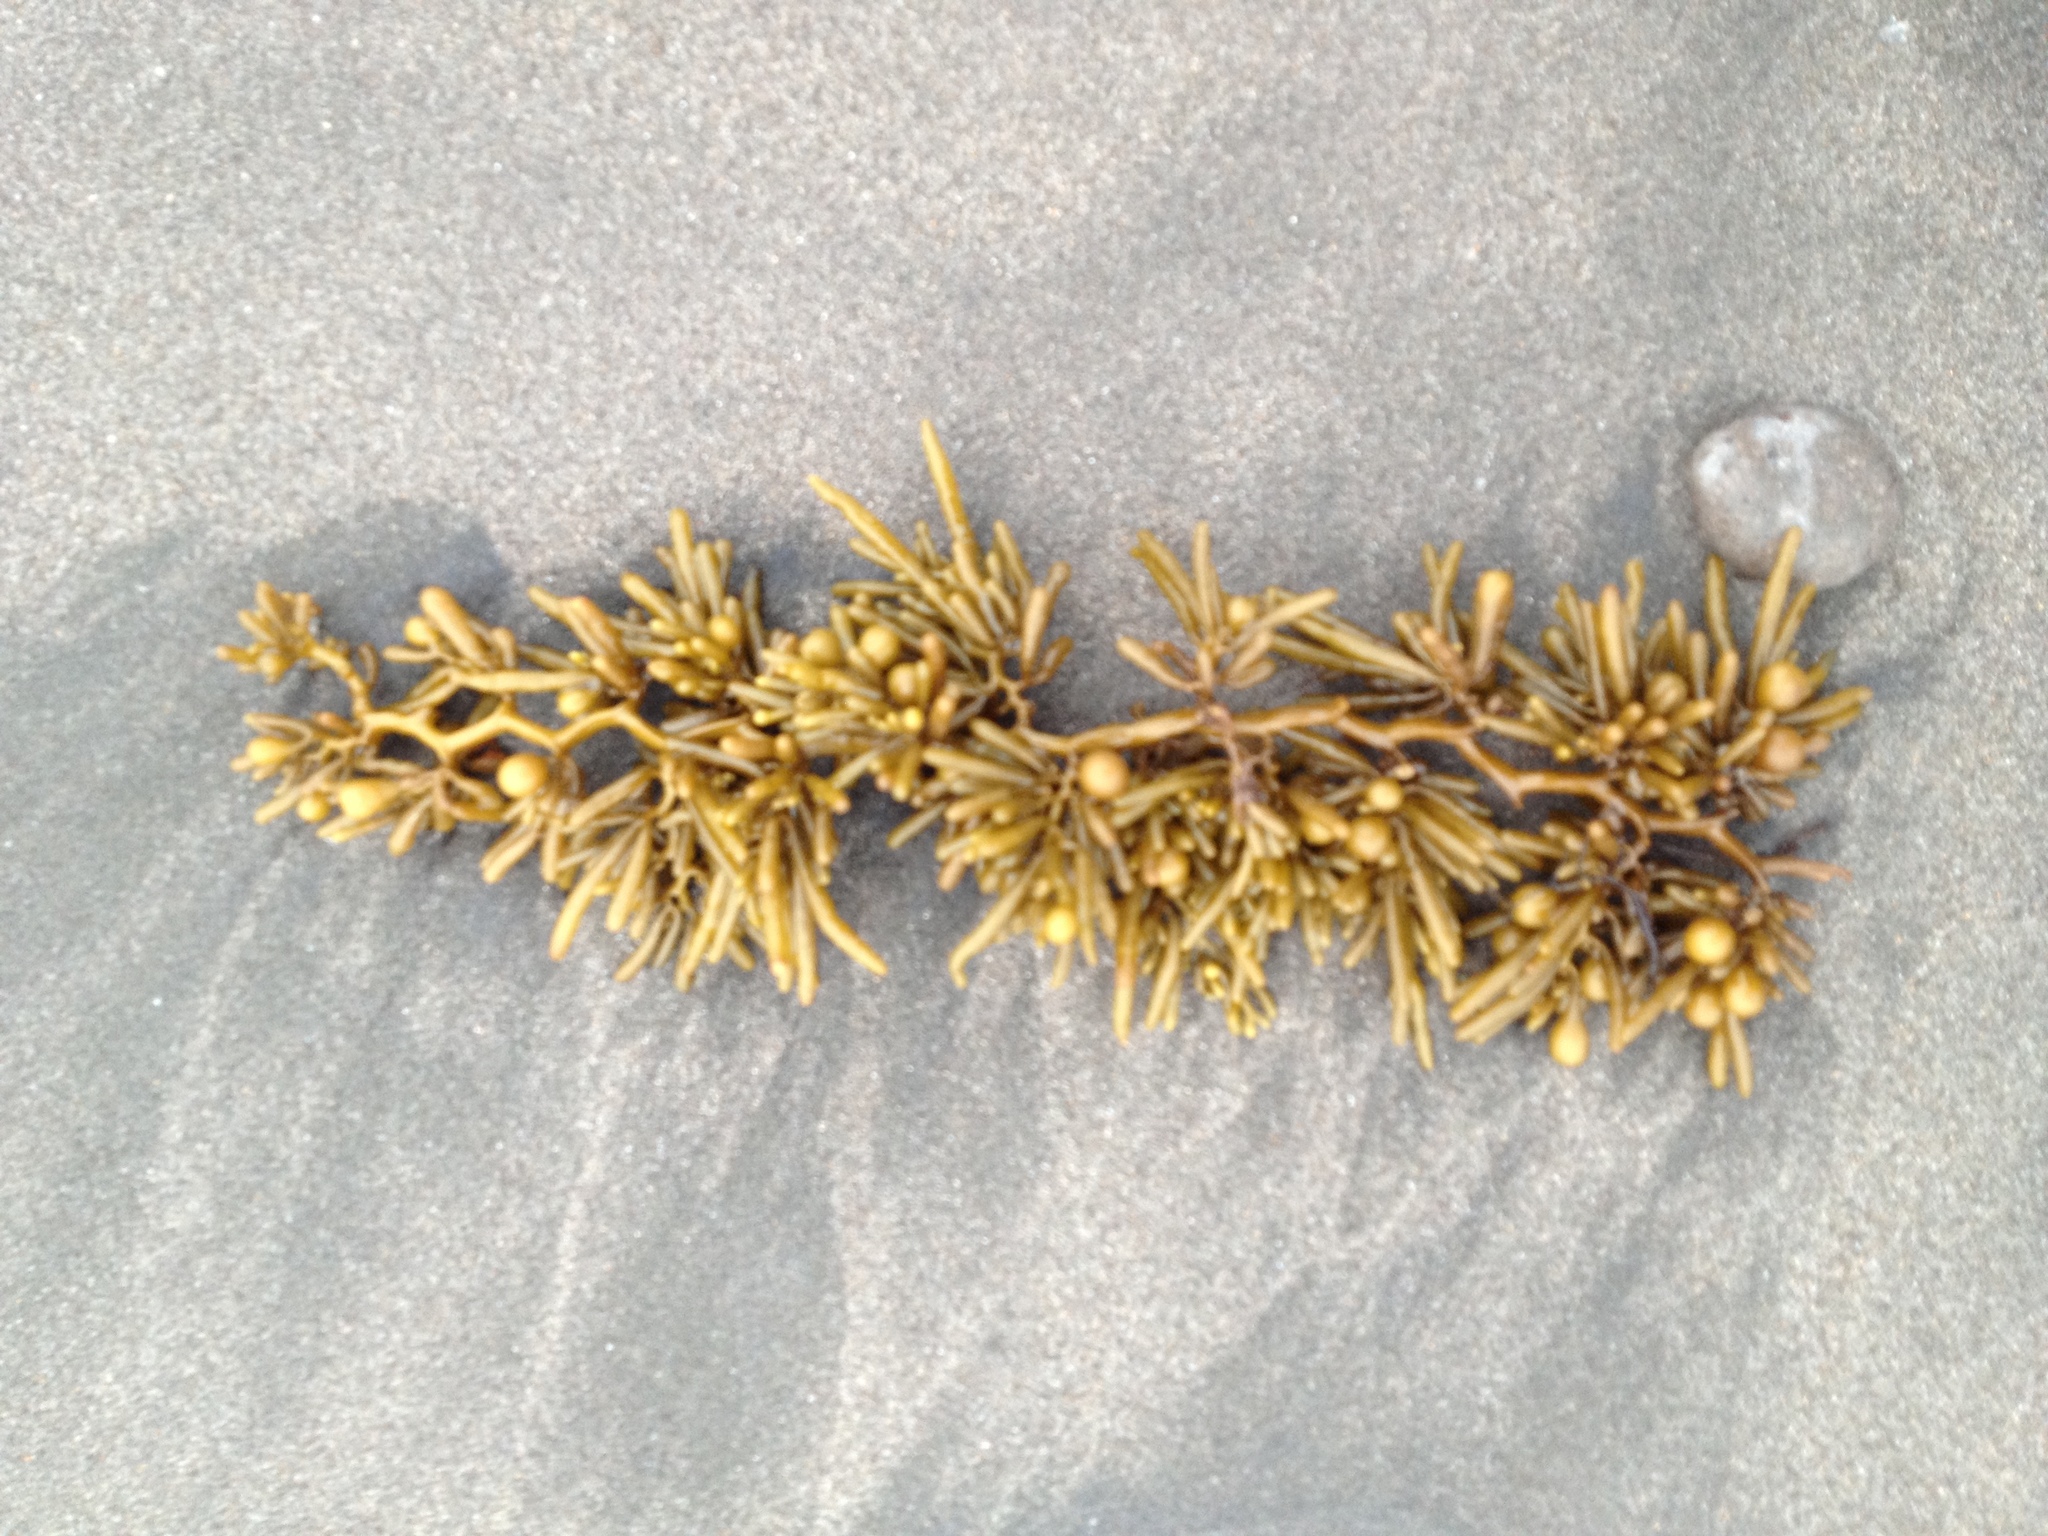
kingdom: Chromista
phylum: Ochrophyta
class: Phaeophyceae
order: Fucales
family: Sargassaceae
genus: Cystophora
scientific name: Cystophora torulosa
